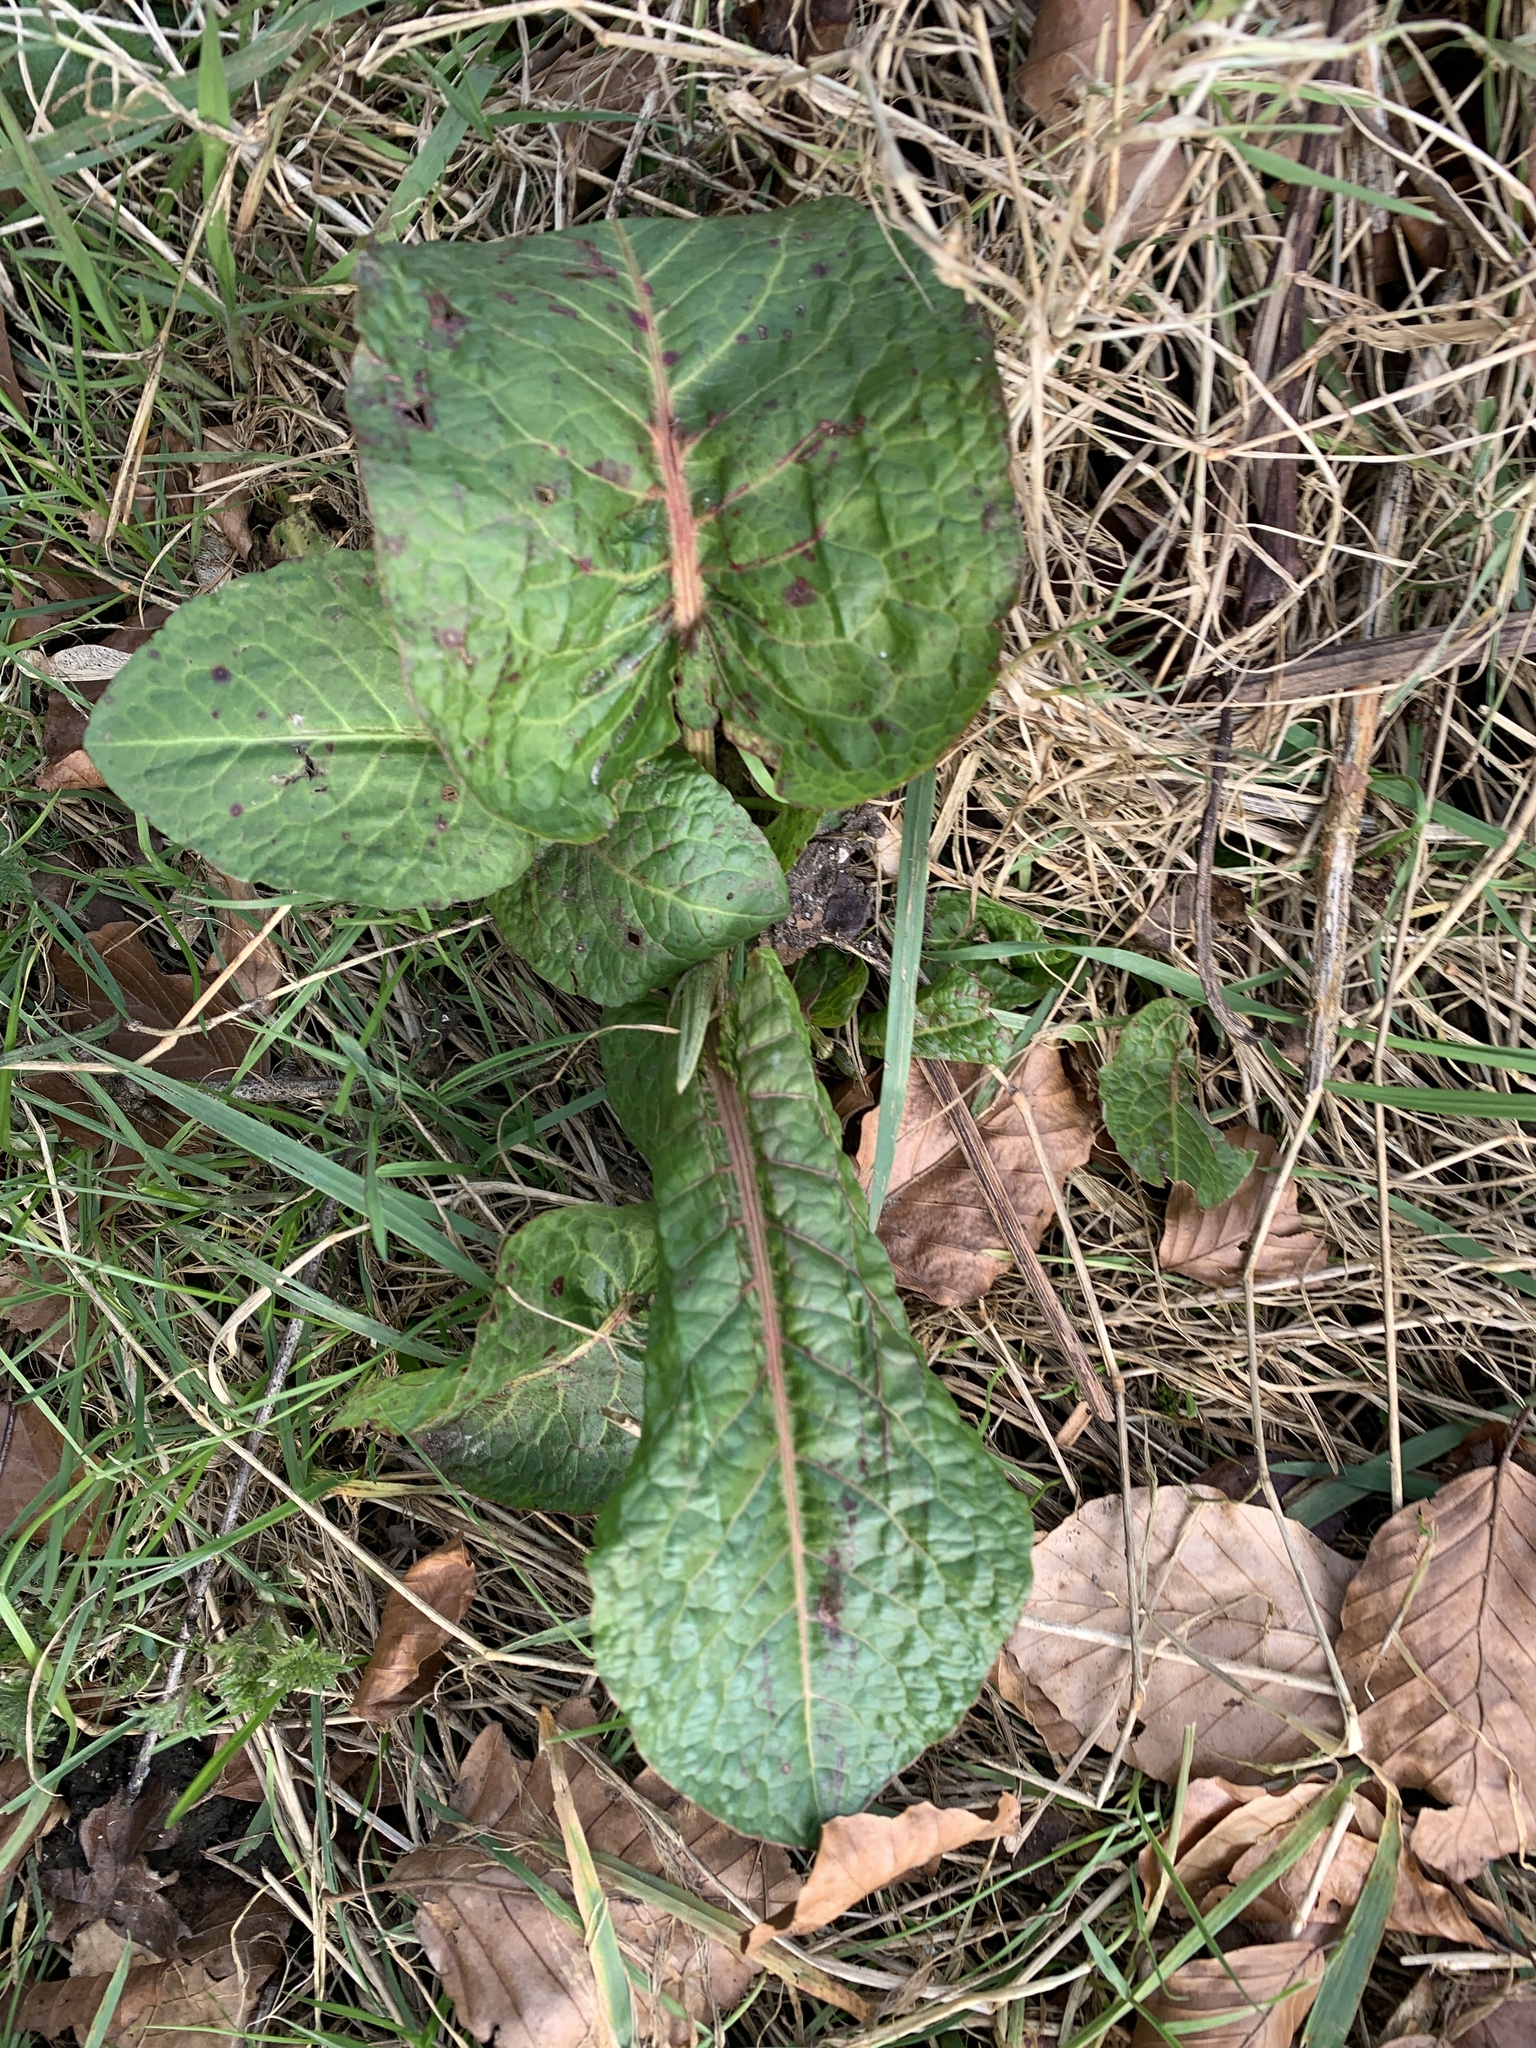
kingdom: Plantae
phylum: Tracheophyta
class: Magnoliopsida
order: Caryophyllales
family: Polygonaceae
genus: Rumex
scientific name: Rumex obtusifolius
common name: Bitter dock
